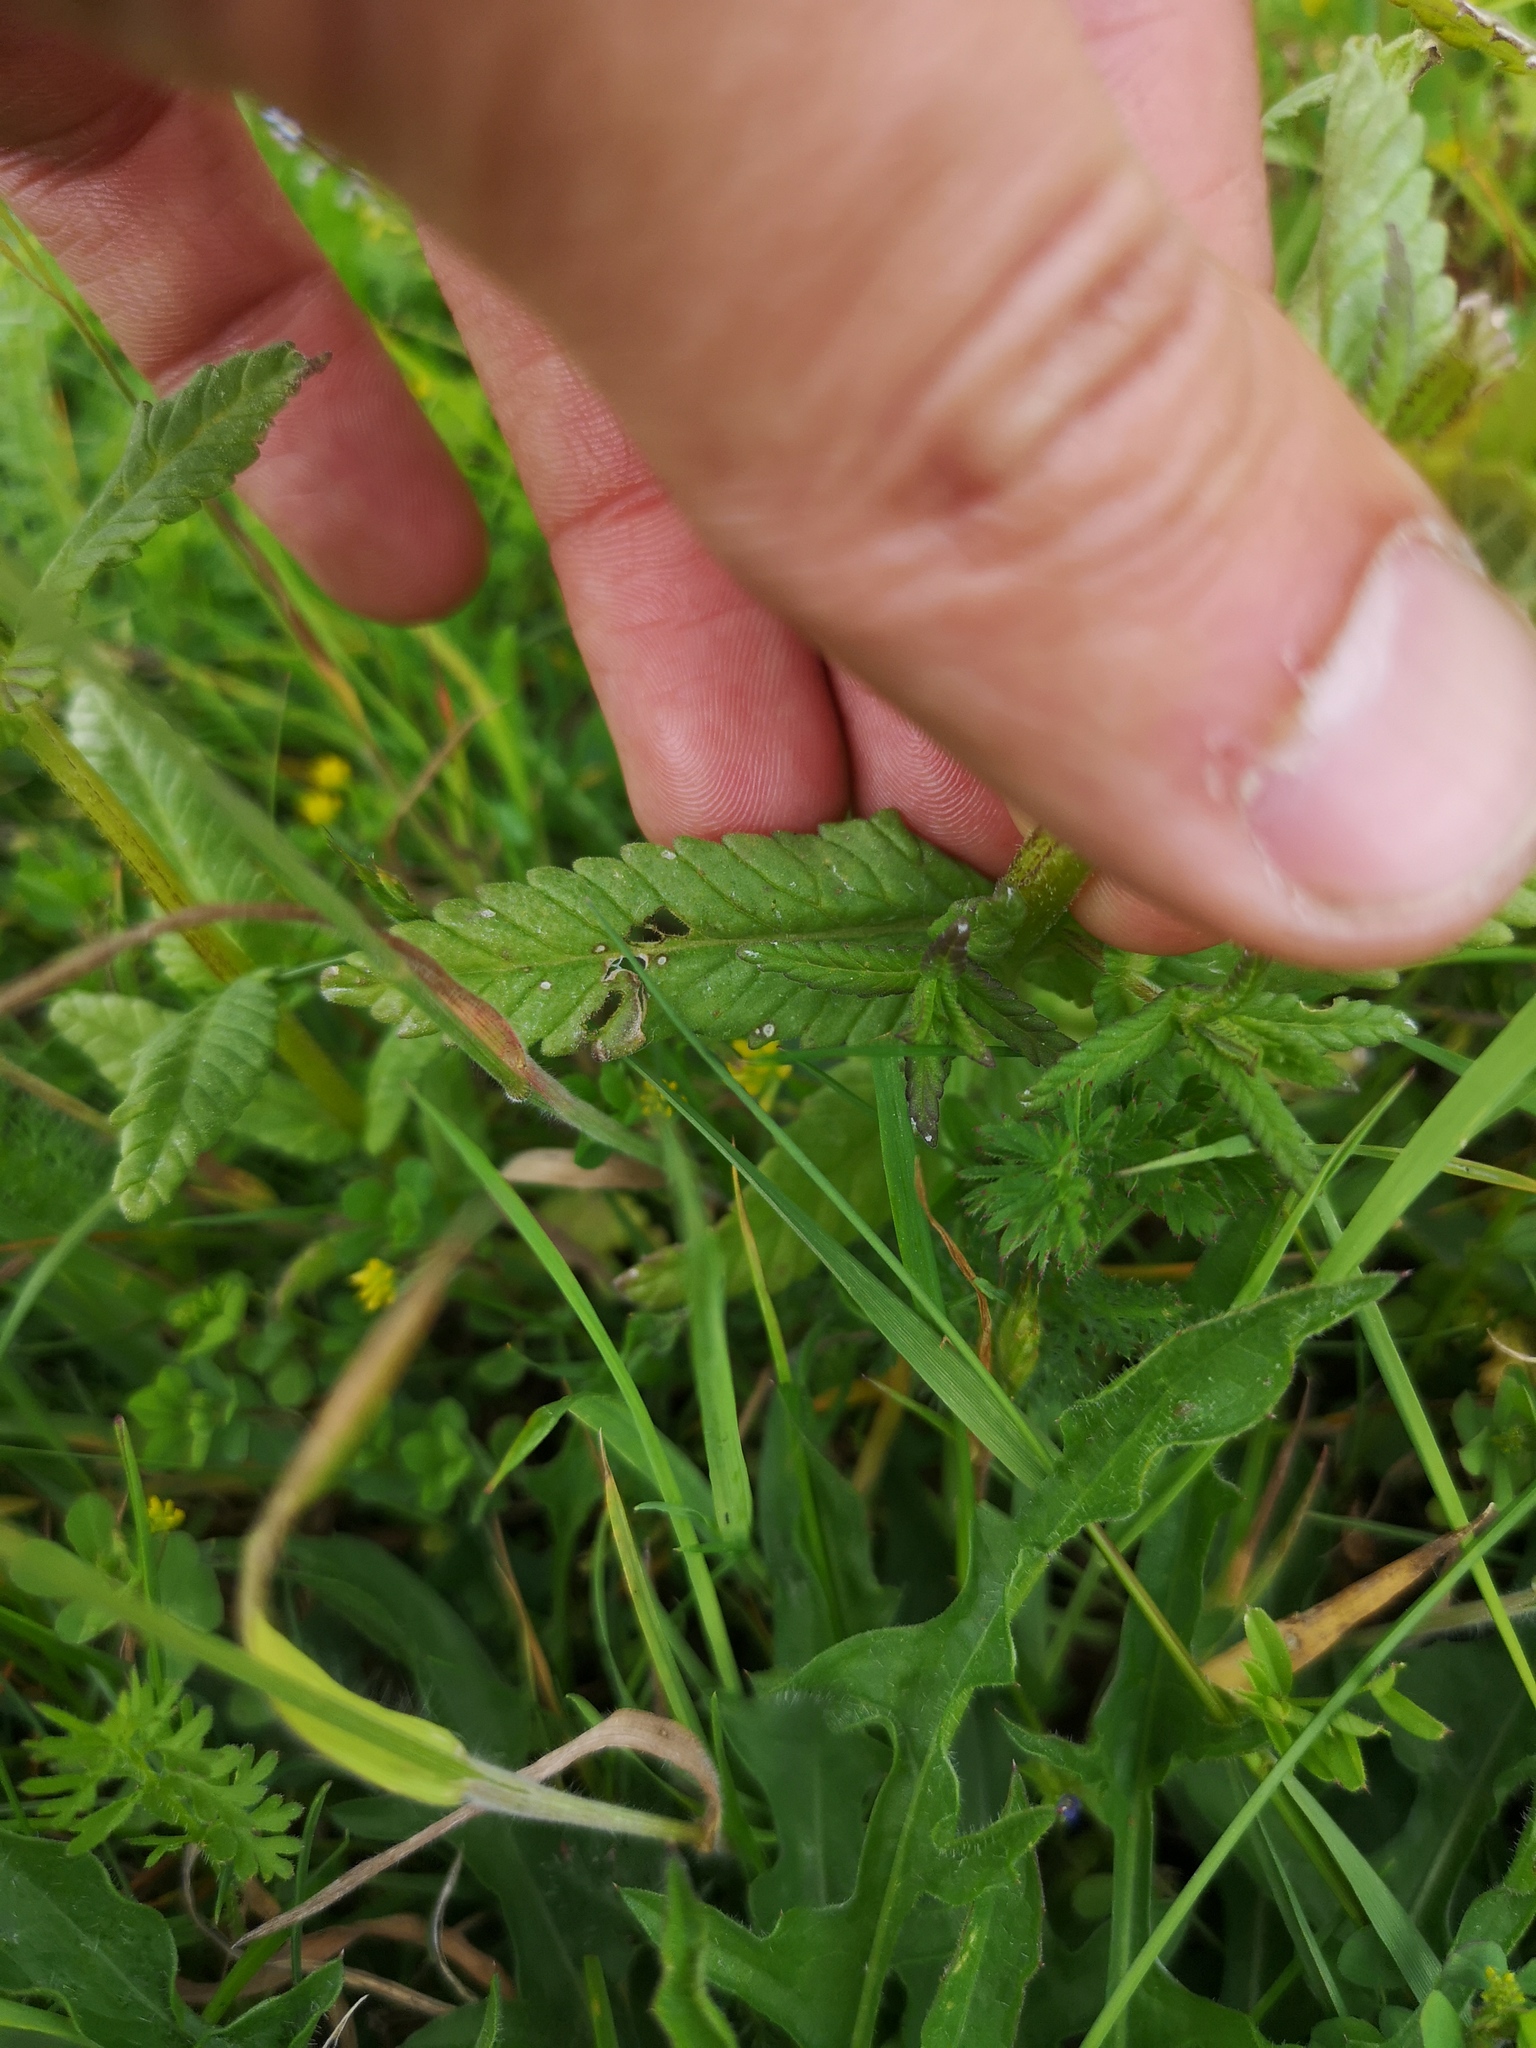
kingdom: Plantae
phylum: Tracheophyta
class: Magnoliopsida
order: Lamiales
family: Orobanchaceae
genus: Rhinanthus
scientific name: Rhinanthus alectorolophus
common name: Greater yellow-rattle
